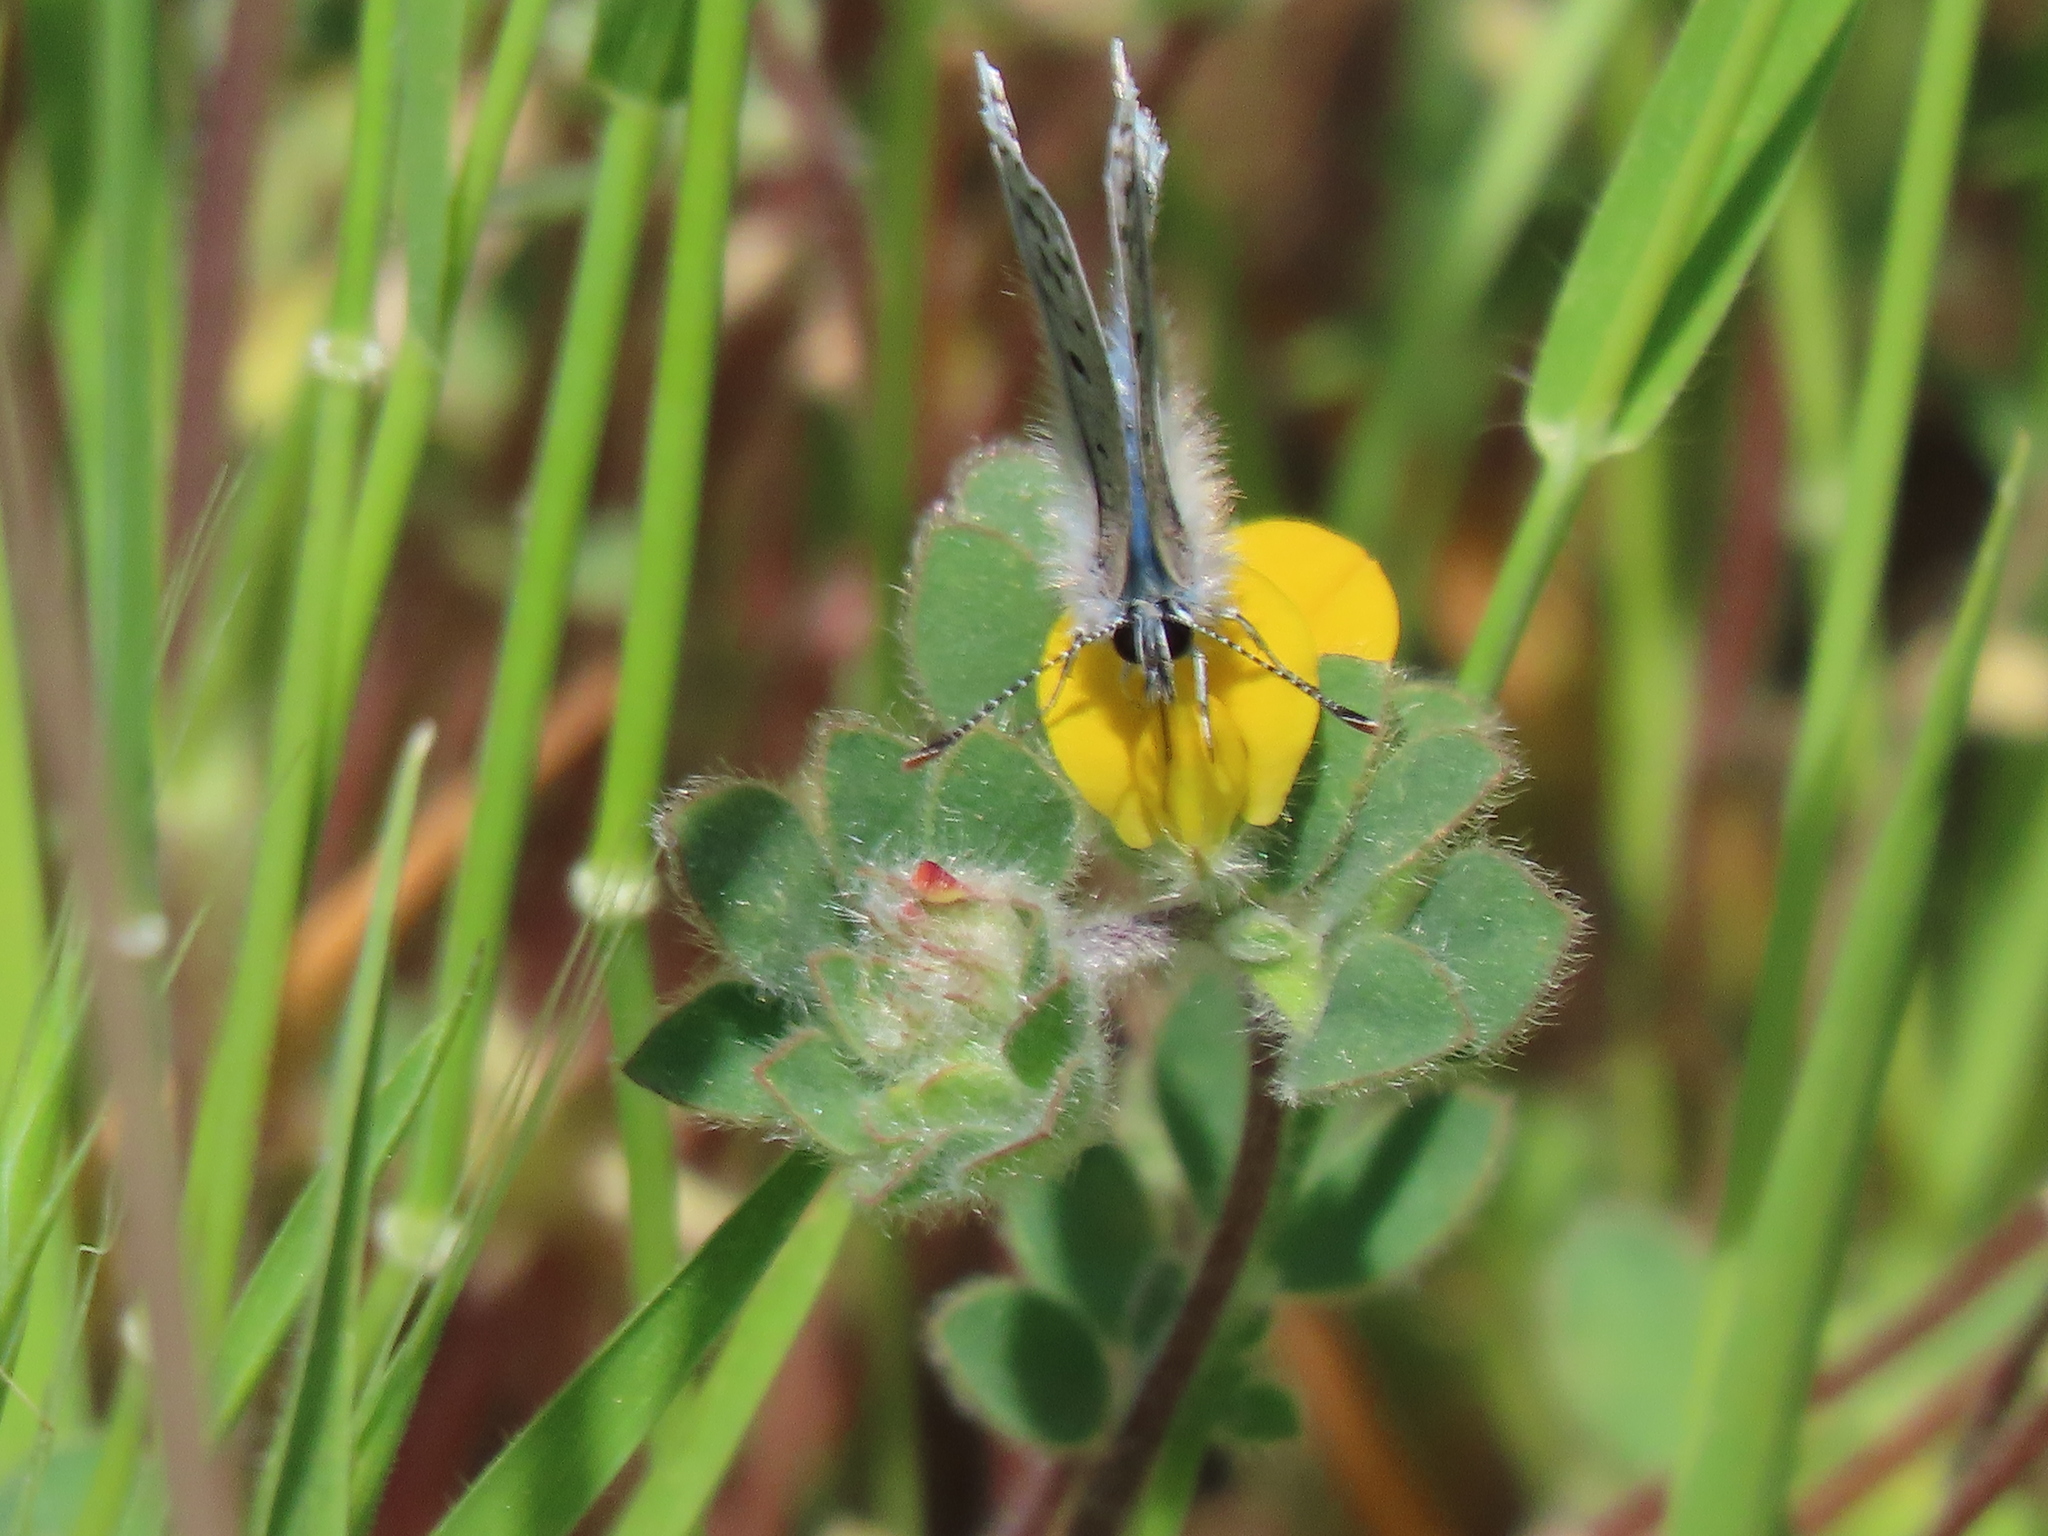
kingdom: Animalia
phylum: Arthropoda
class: Insecta
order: Lepidoptera
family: Lycaenidae
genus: Icaricia
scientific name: Icaricia acmon
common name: Acmon blue
